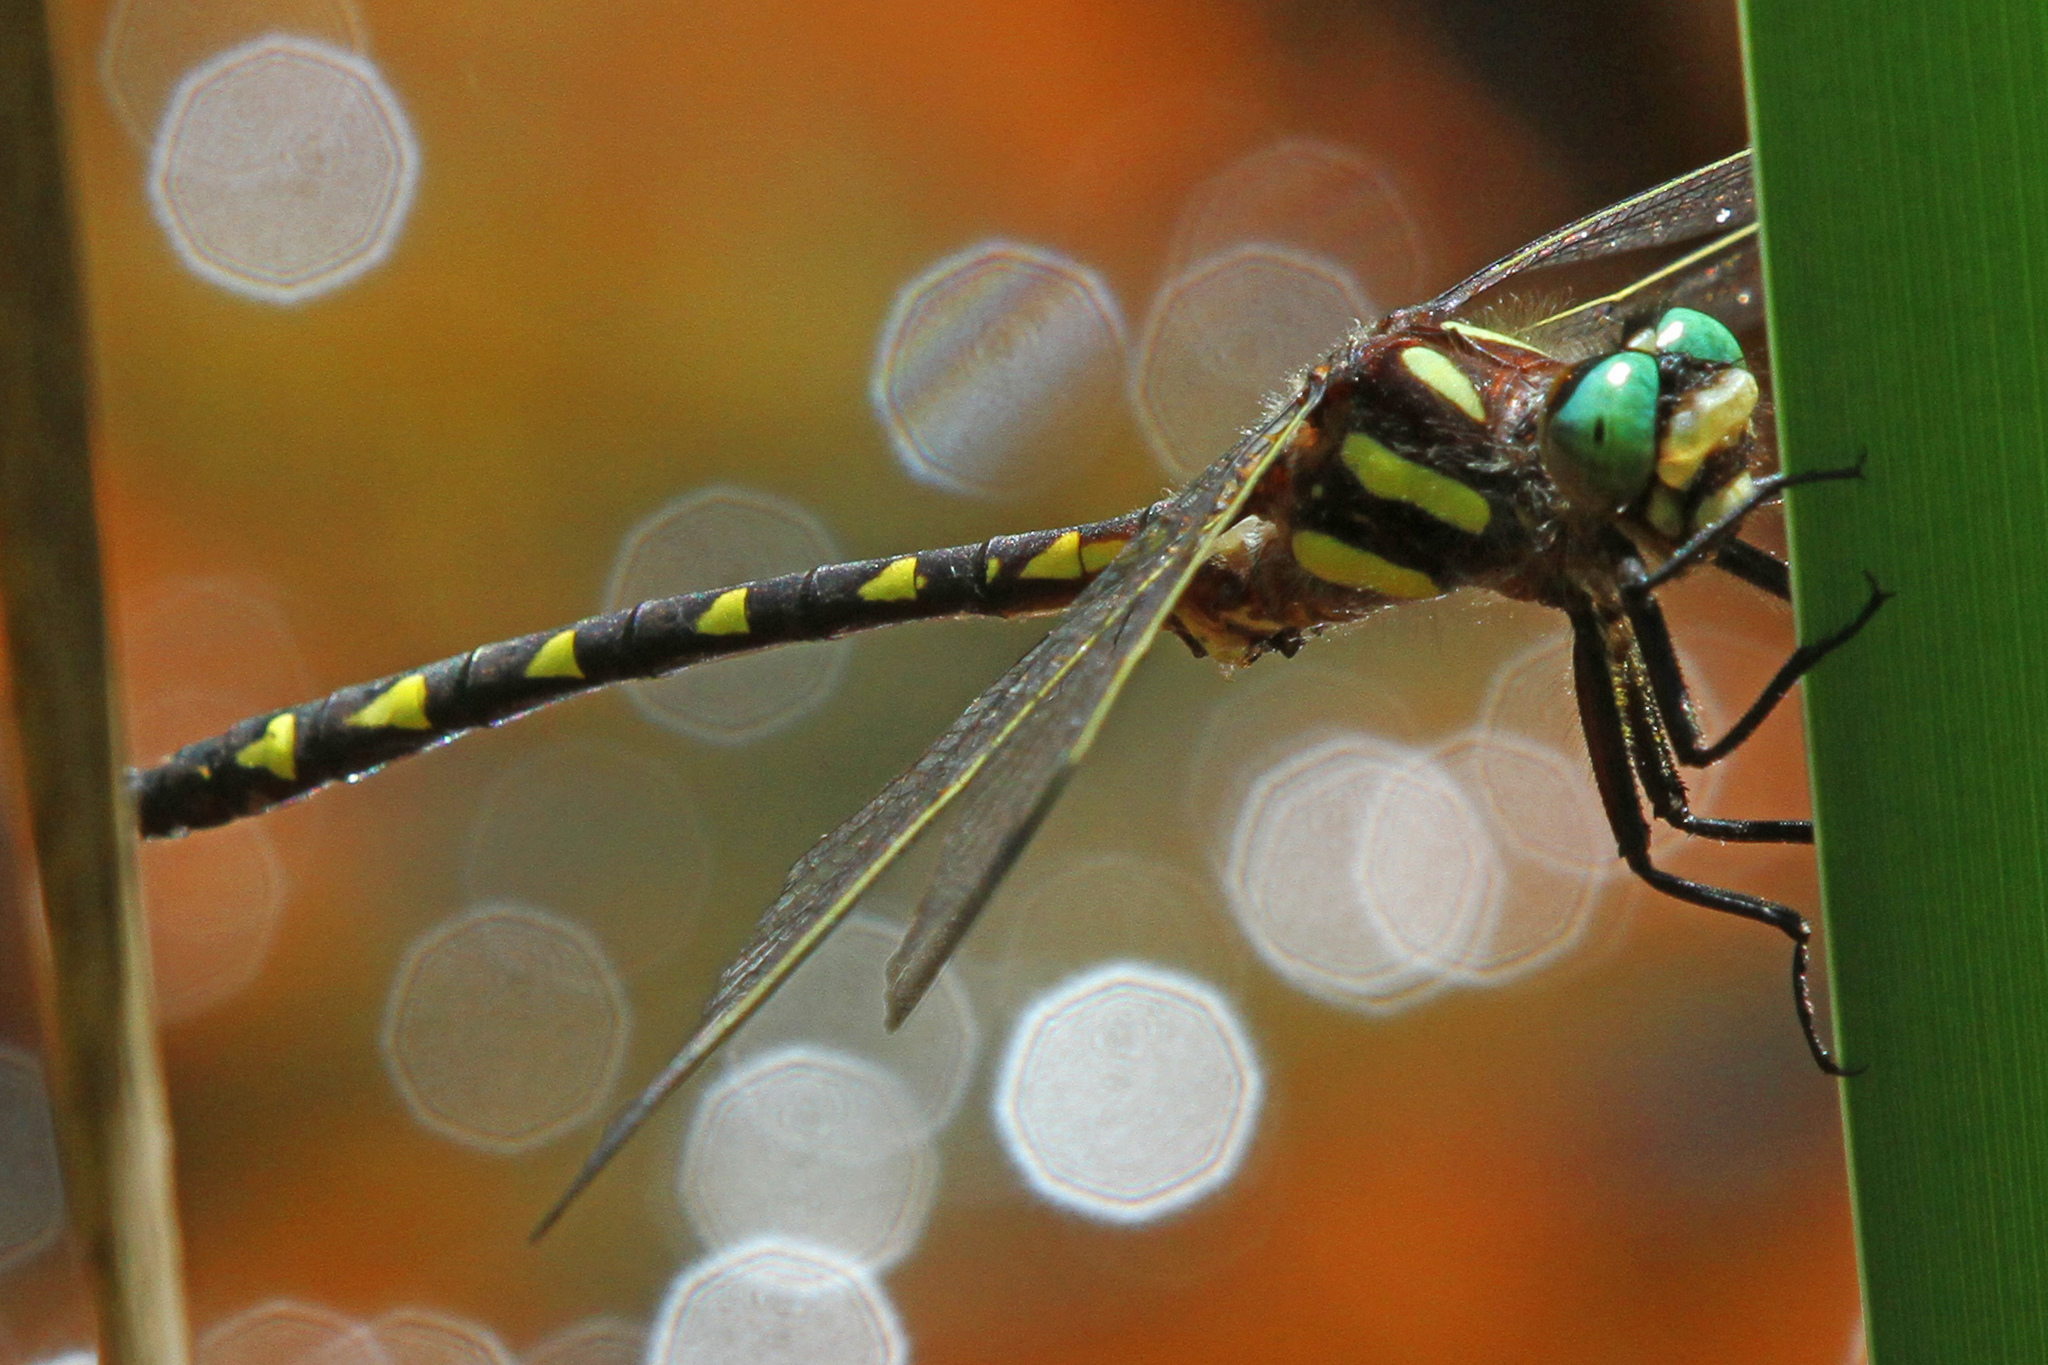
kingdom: Animalia
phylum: Arthropoda
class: Insecta
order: Odonata
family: Cordulegastridae
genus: Cordulegaster
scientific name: Cordulegaster diastatops
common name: Delta-spotted spiketail
